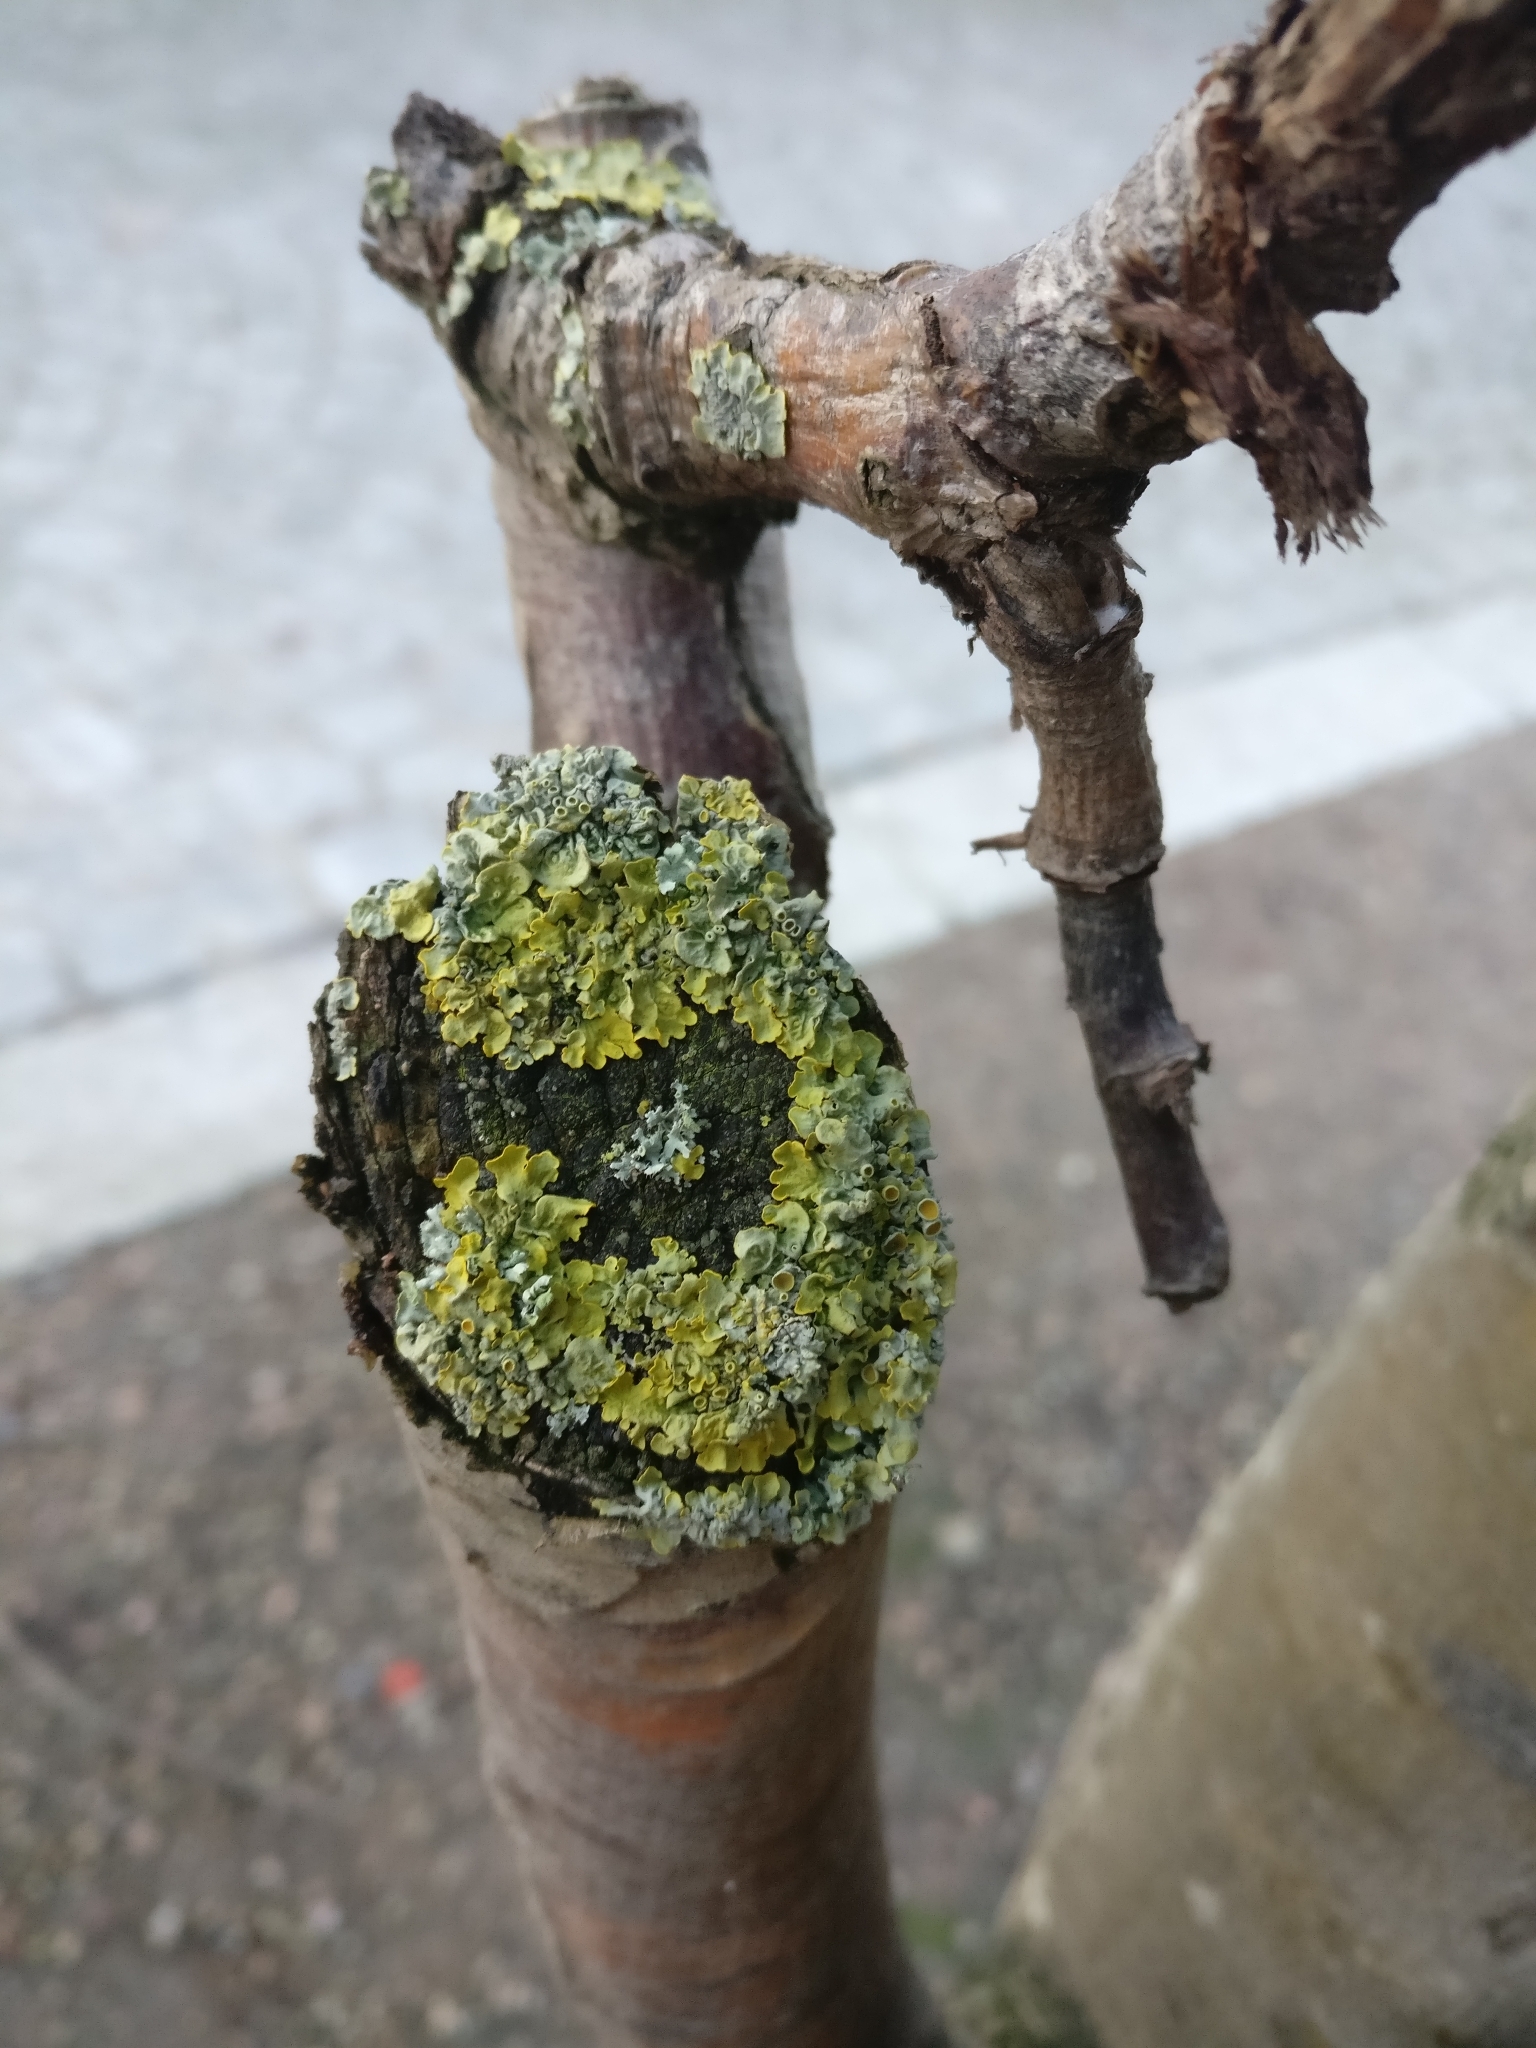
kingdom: Fungi
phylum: Ascomycota
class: Lecanoromycetes
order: Teloschistales
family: Teloschistaceae
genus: Xanthoria
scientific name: Xanthoria parietina
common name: Common orange lichen
